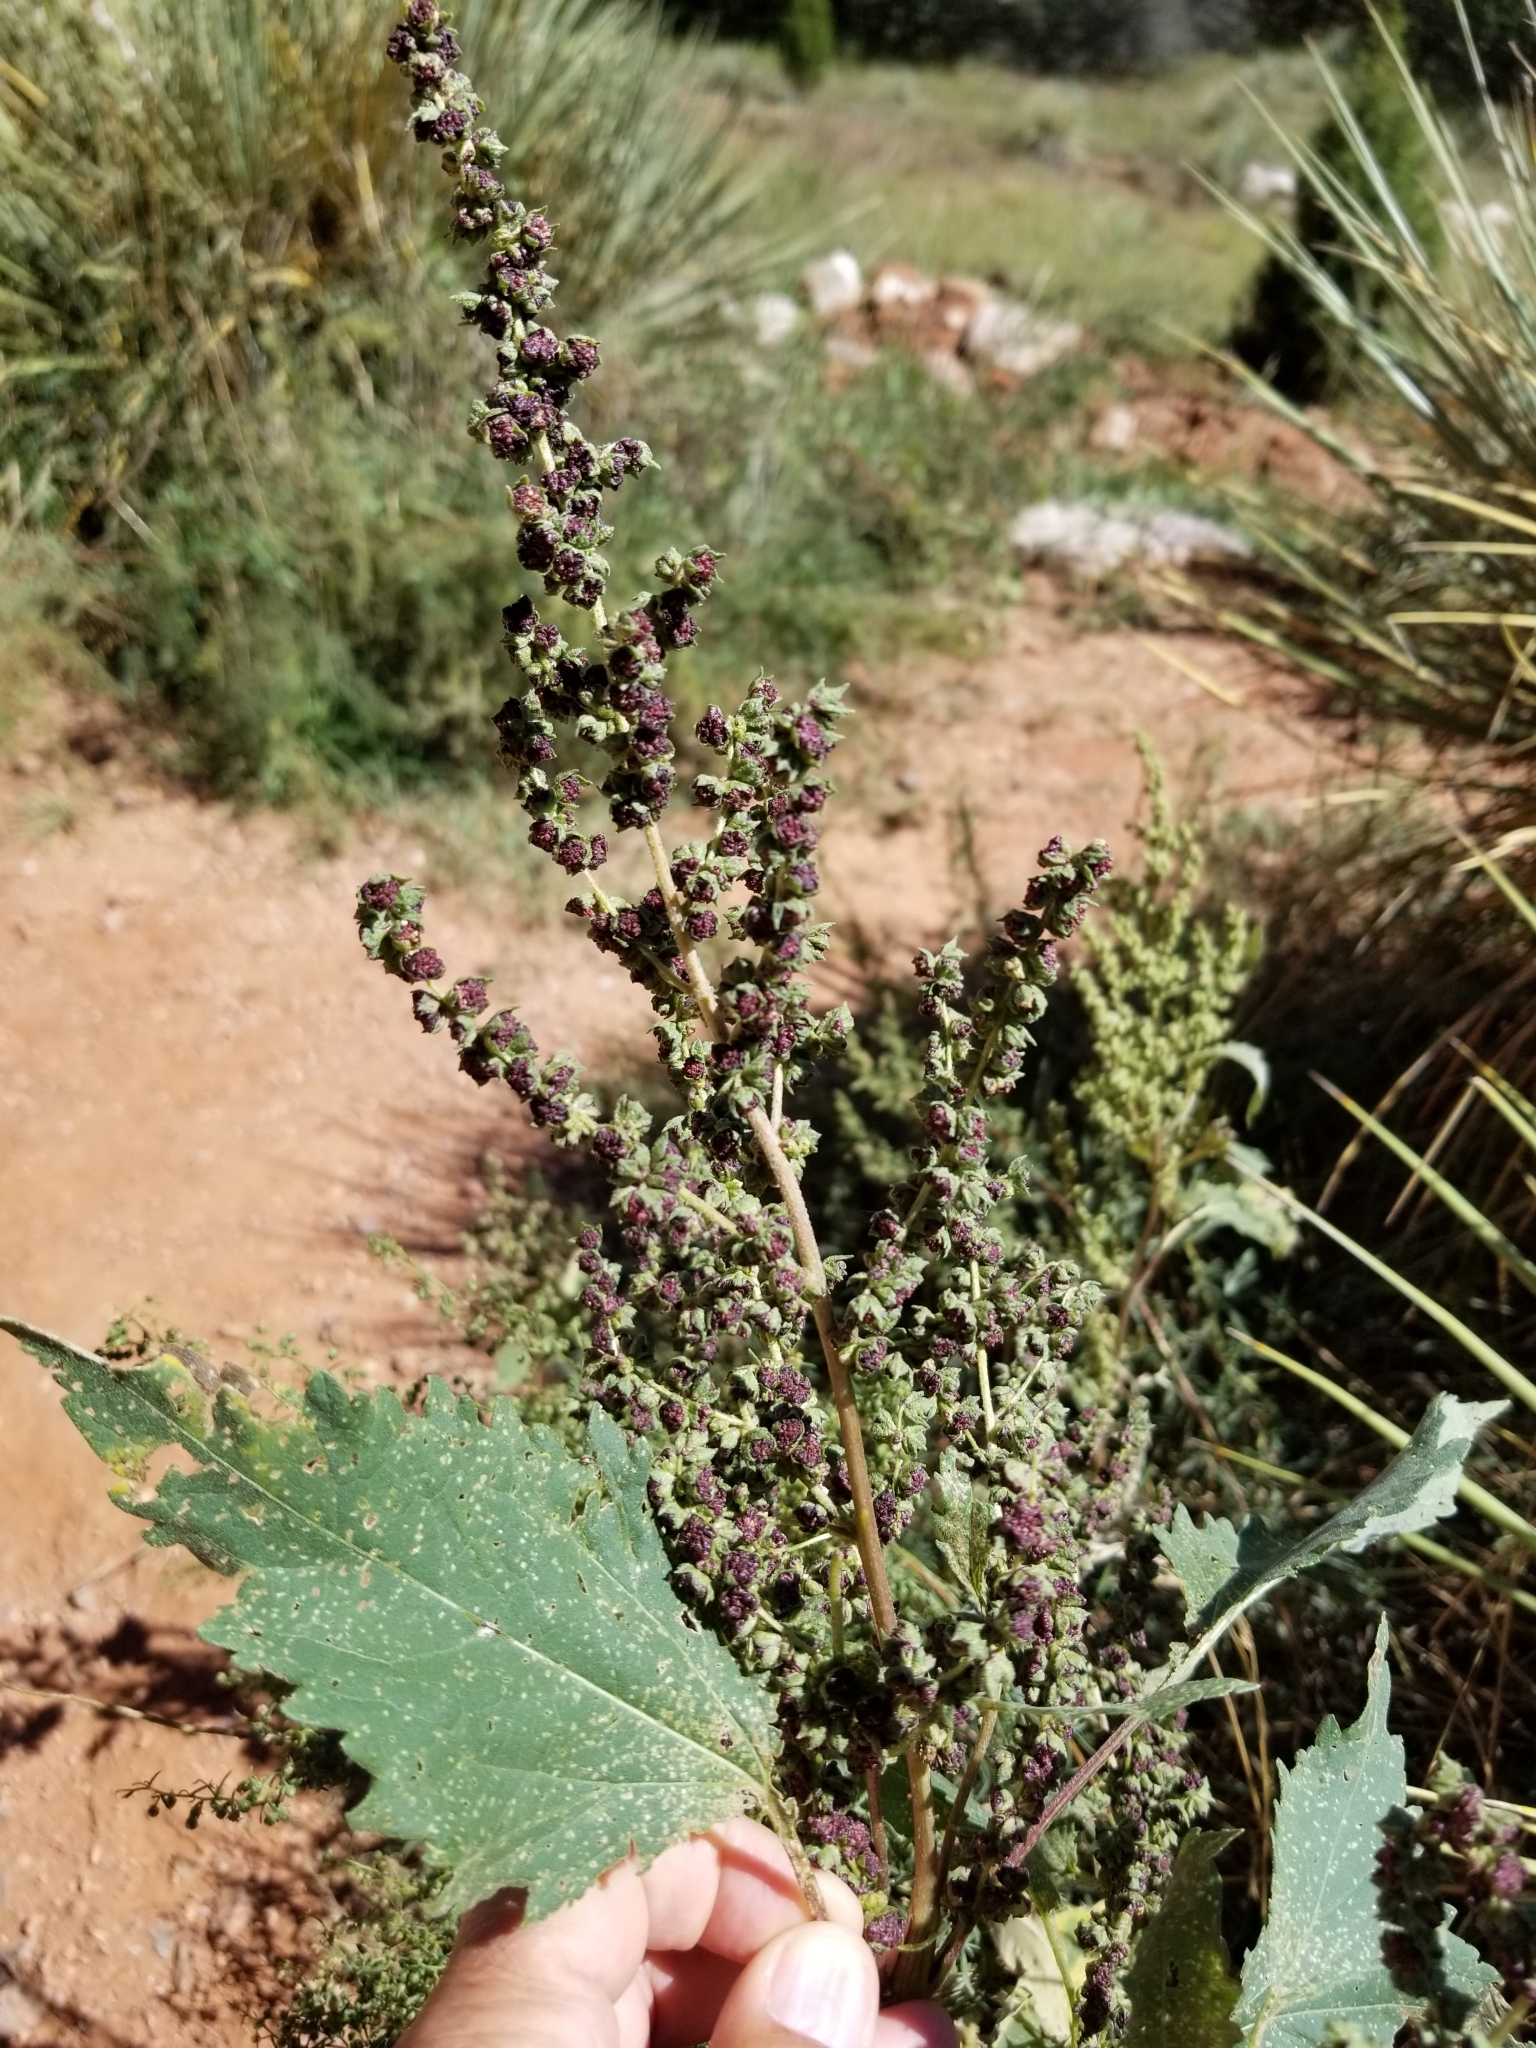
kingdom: Plantae
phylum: Tracheophyta
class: Magnoliopsida
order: Caryophyllales
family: Amaranthaceae
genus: Chenopodium
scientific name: Chenopodium album
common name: Fat-hen
